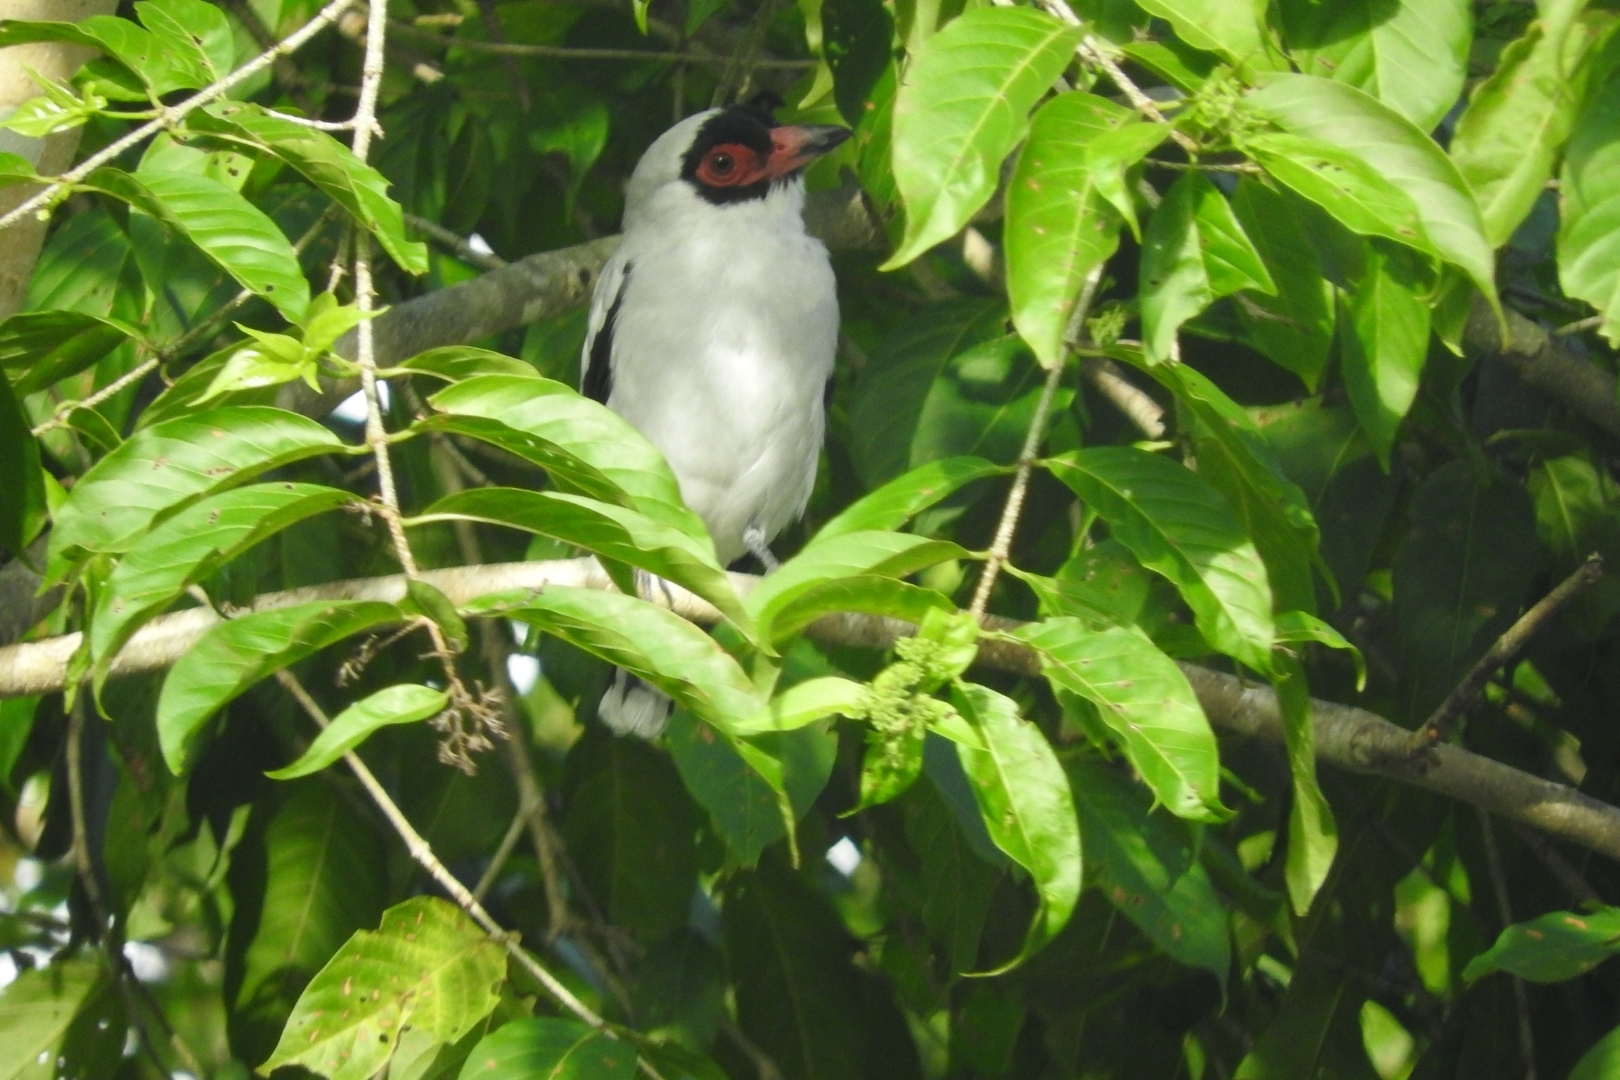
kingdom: Animalia
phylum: Chordata
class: Aves
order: Passeriformes
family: Cotingidae
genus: Tityra
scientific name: Tityra semifasciata
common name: Masked tityra
